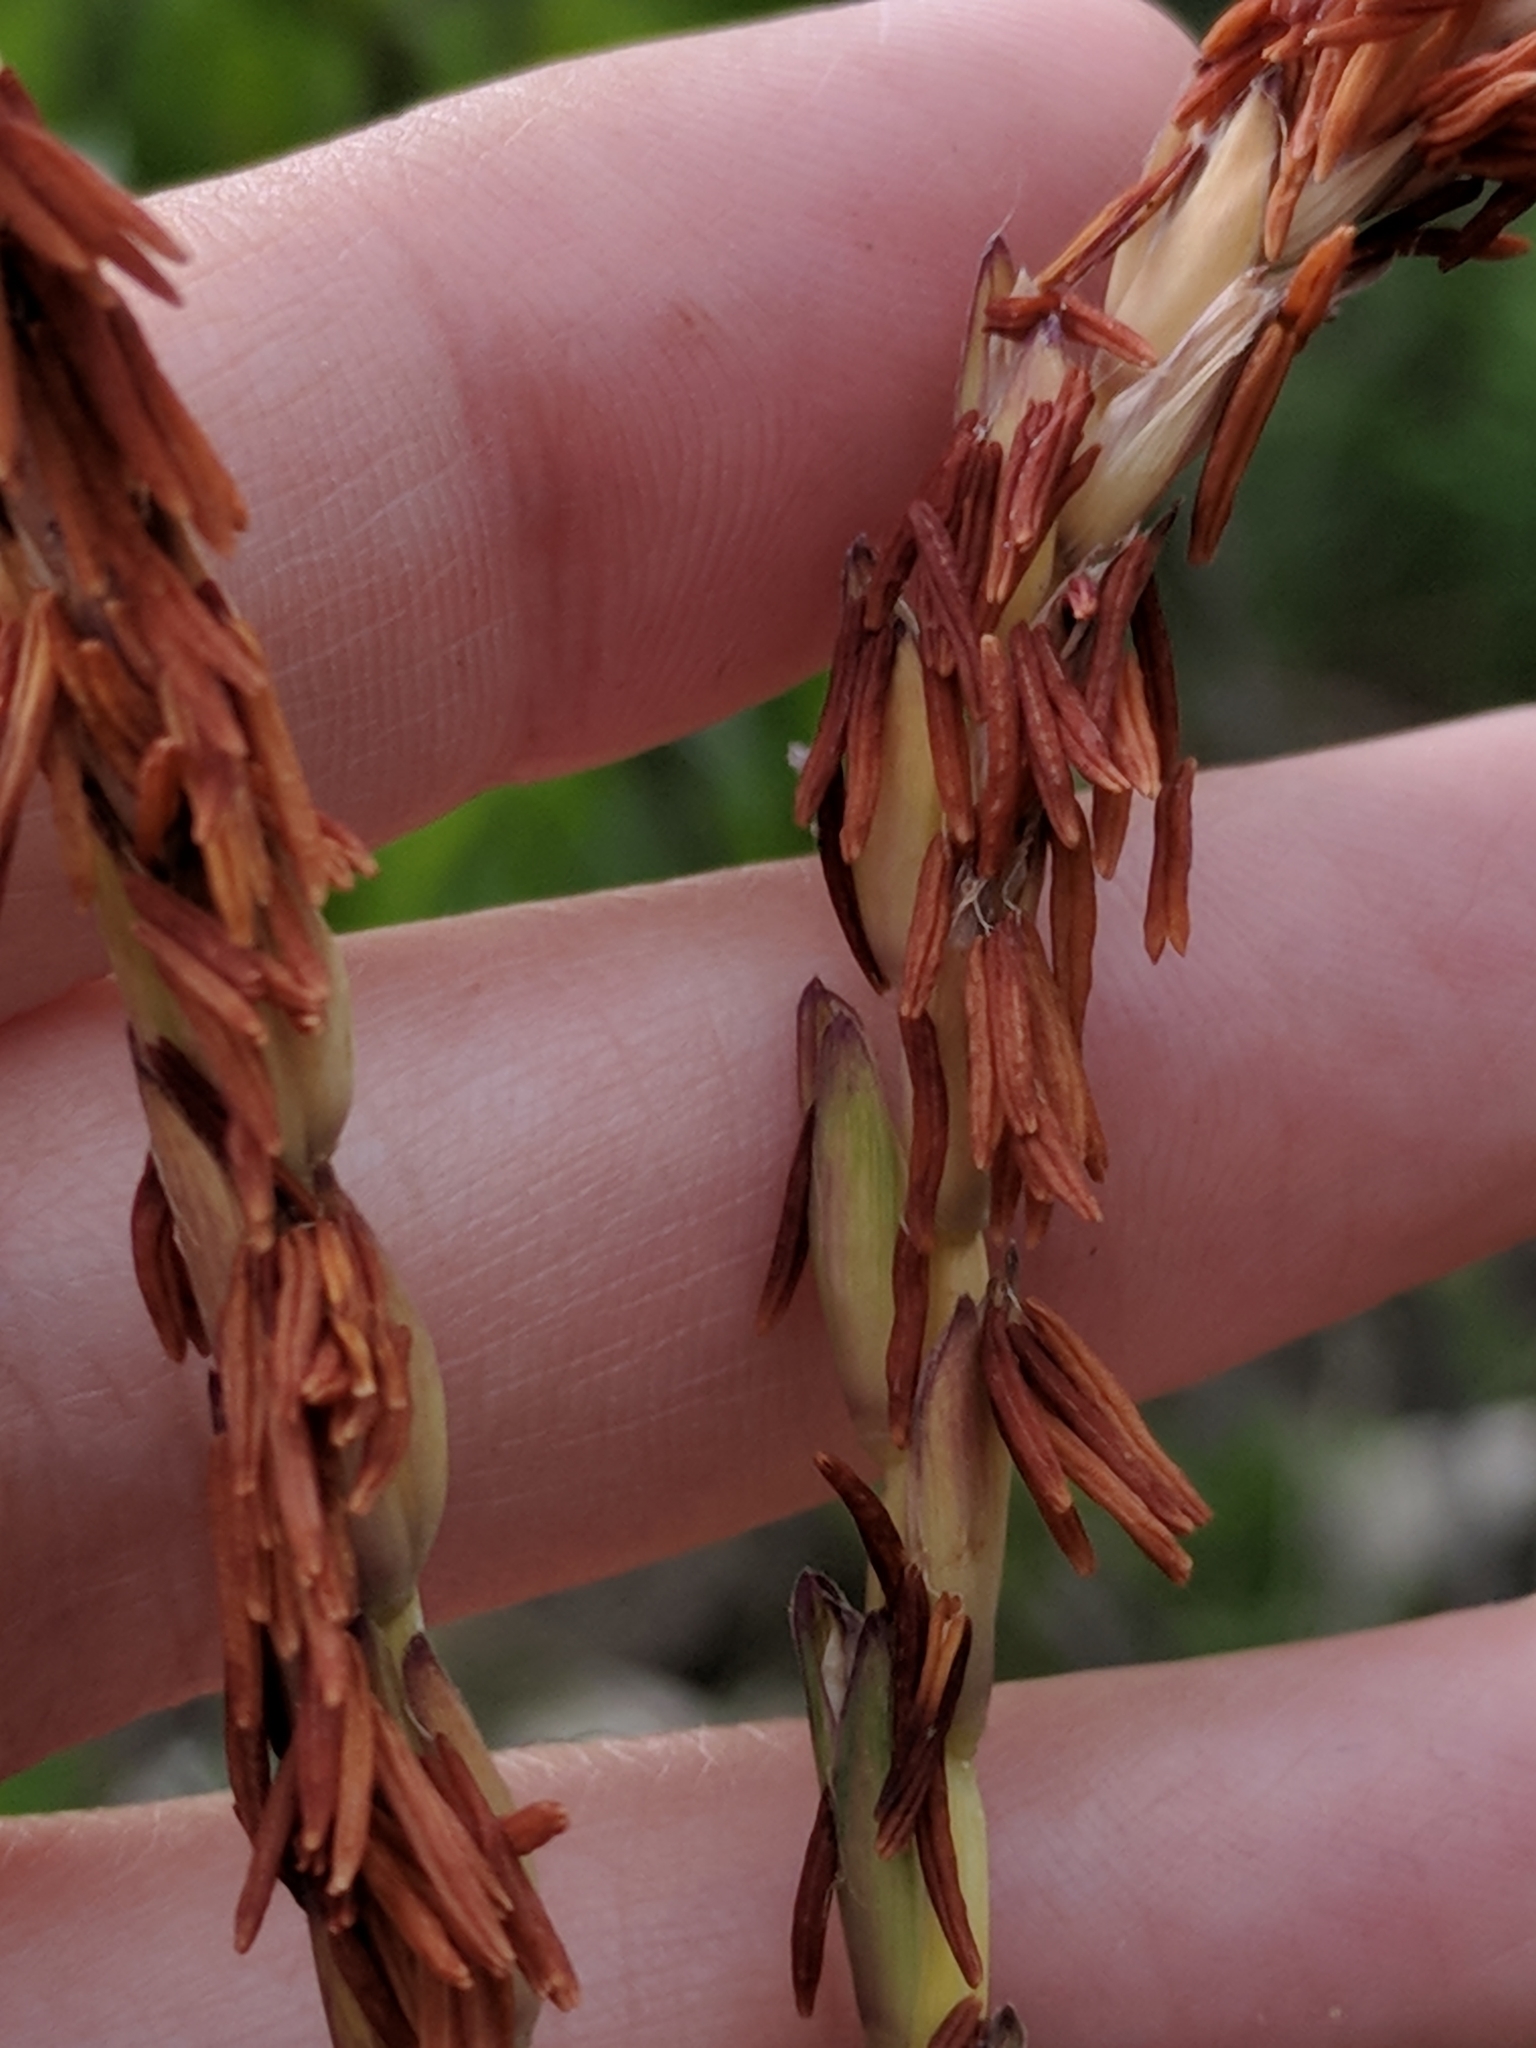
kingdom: Plantae
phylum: Tracheophyta
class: Liliopsida
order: Poales
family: Poaceae
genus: Tripsacum
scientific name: Tripsacum dactyloides
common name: Buffalo-grass
